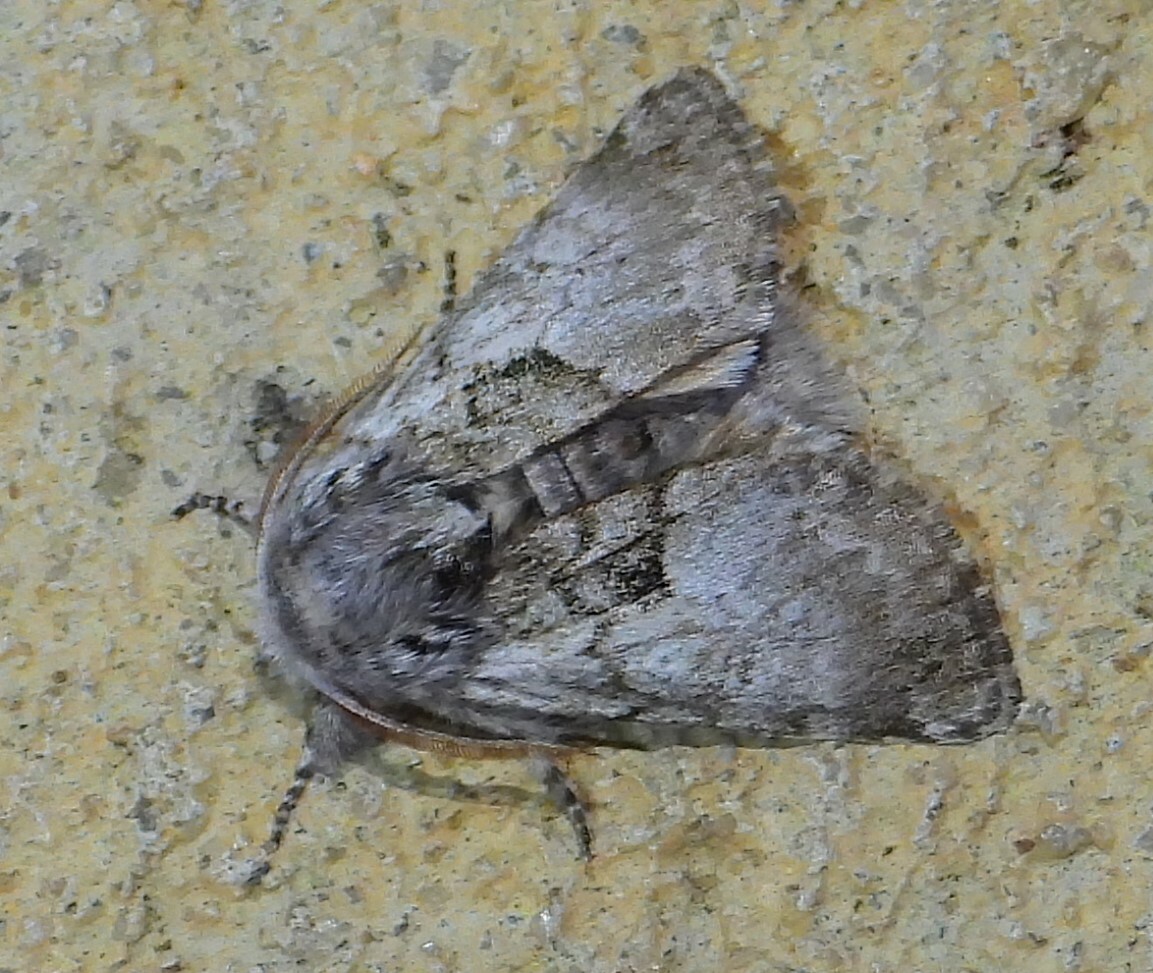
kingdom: Animalia
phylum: Arthropoda
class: Insecta
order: Lepidoptera
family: Noctuidae
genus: Colocasia
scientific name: Colocasia flavicornis
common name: Saddled yellowhorn
